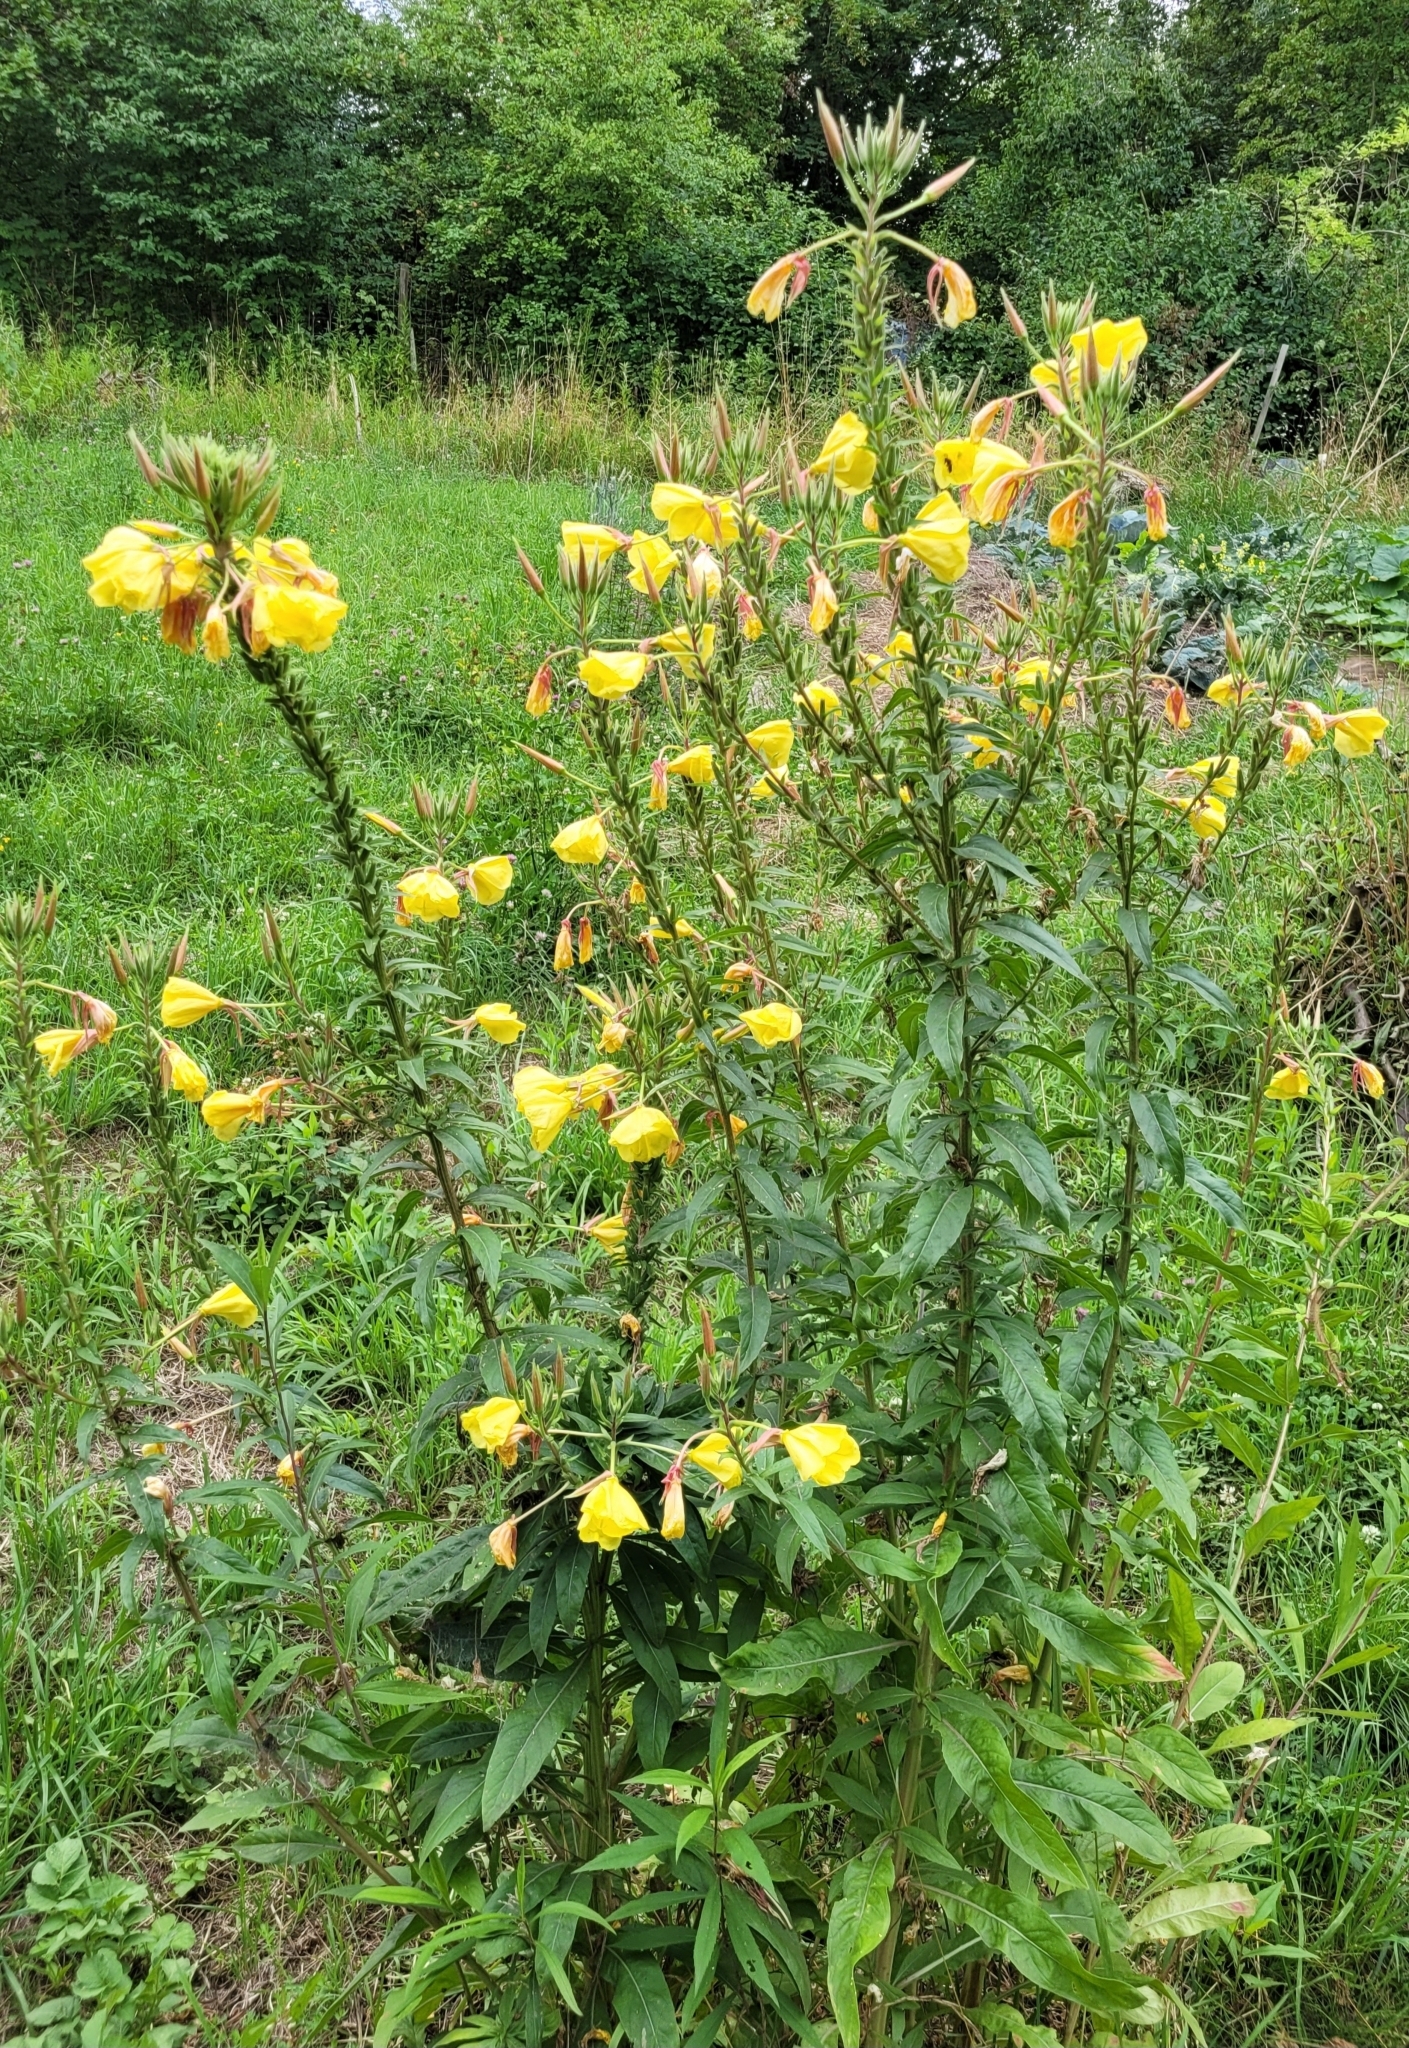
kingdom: Plantae
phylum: Tracheophyta
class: Magnoliopsida
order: Myrtales
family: Onagraceae
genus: Oenothera
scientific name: Oenothera glazioviana
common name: Large-flowered evening-primrose
